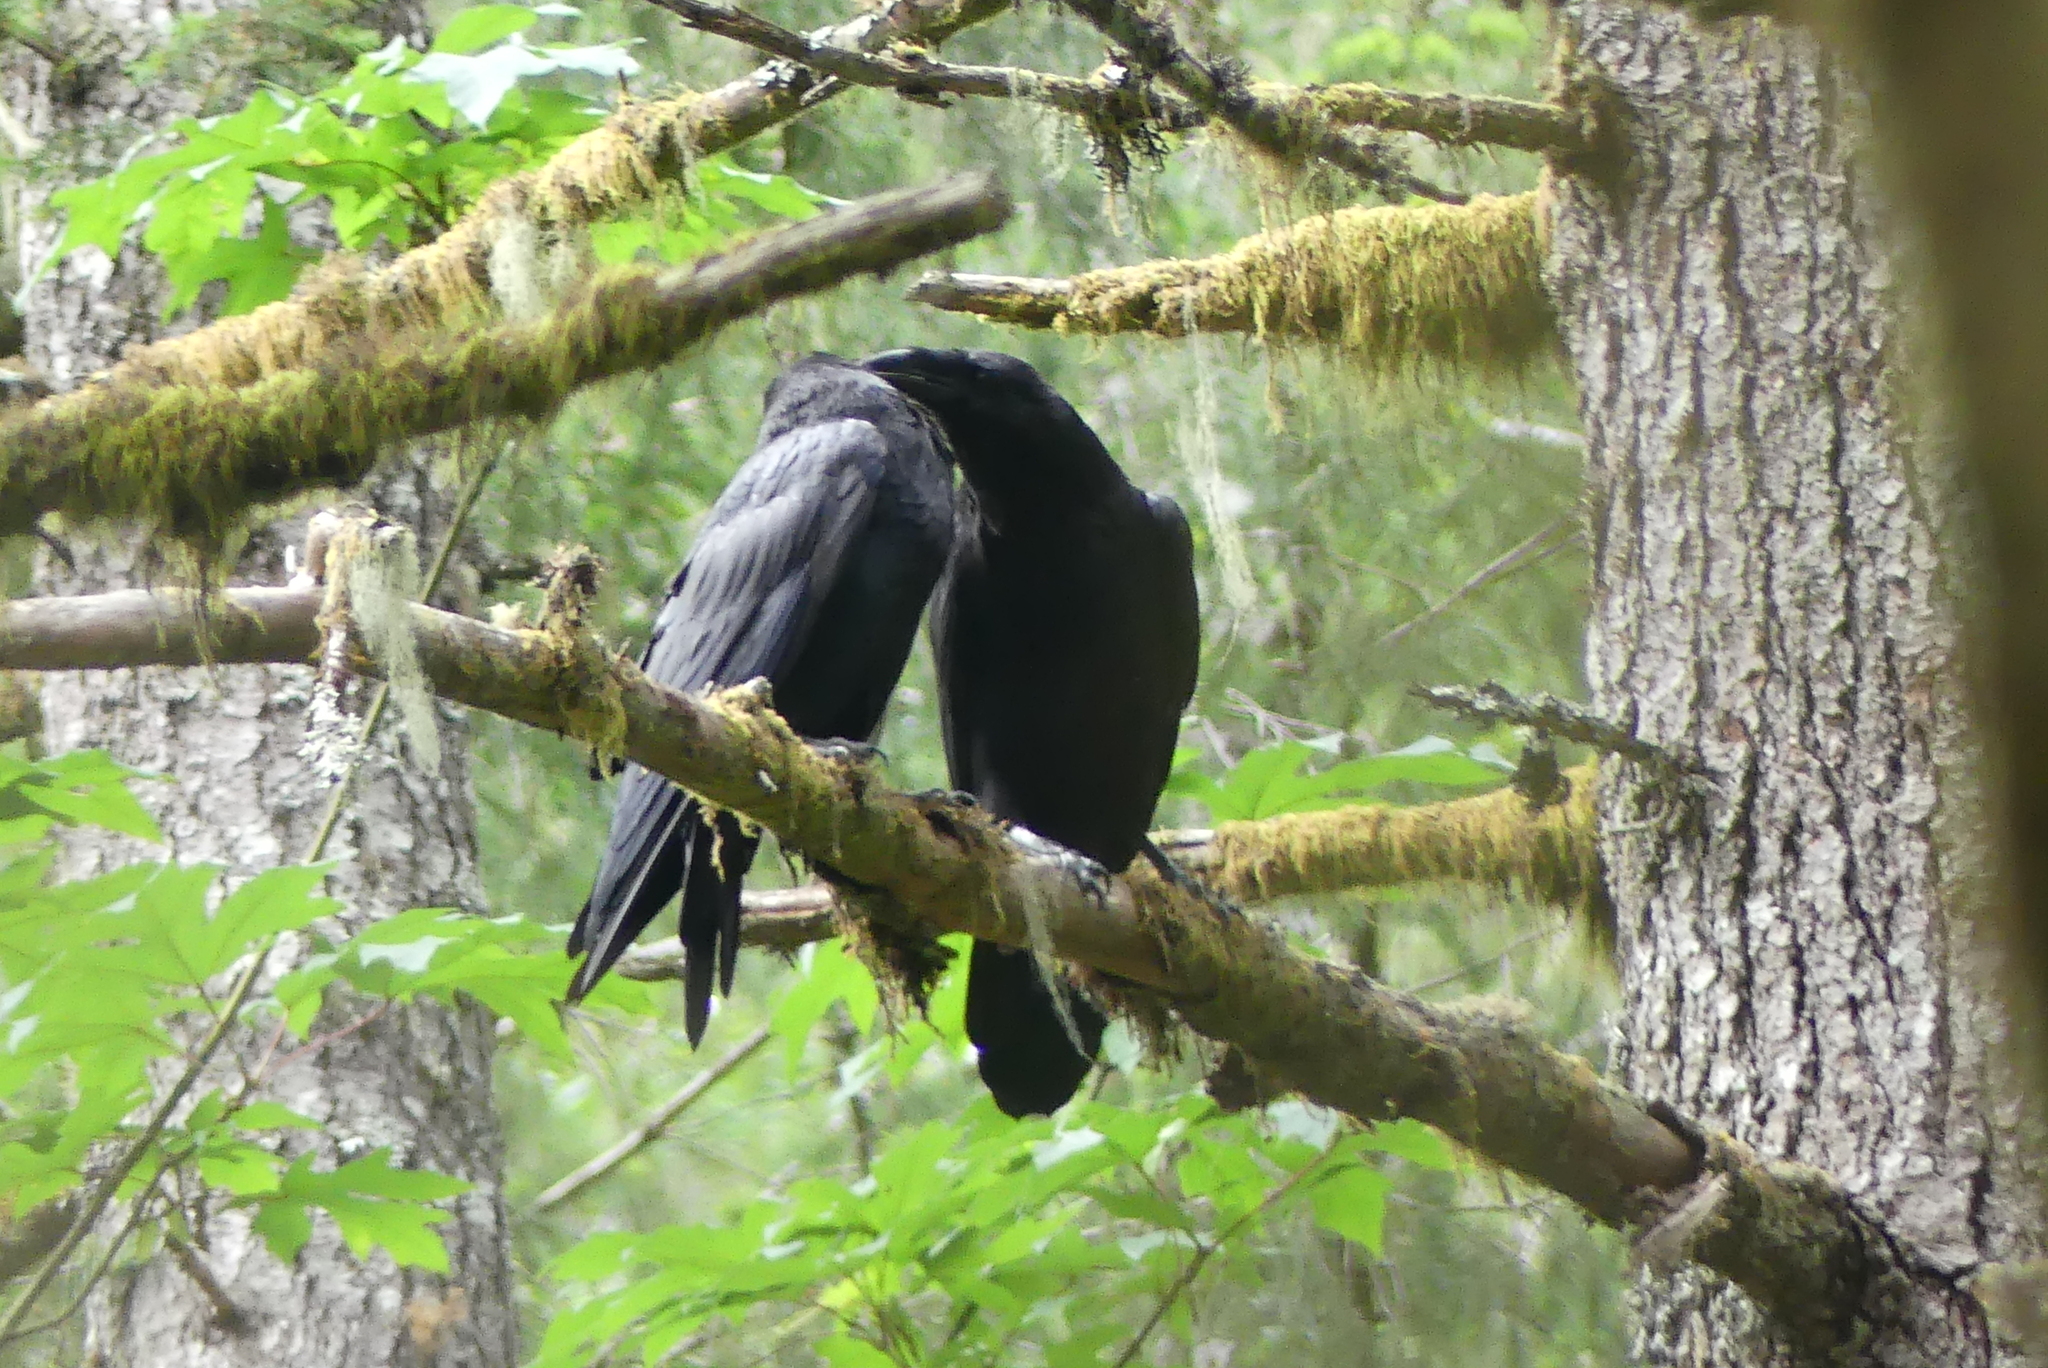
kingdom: Animalia
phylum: Chordata
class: Aves
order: Passeriformes
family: Corvidae
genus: Corvus
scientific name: Corvus corax
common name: Common raven
